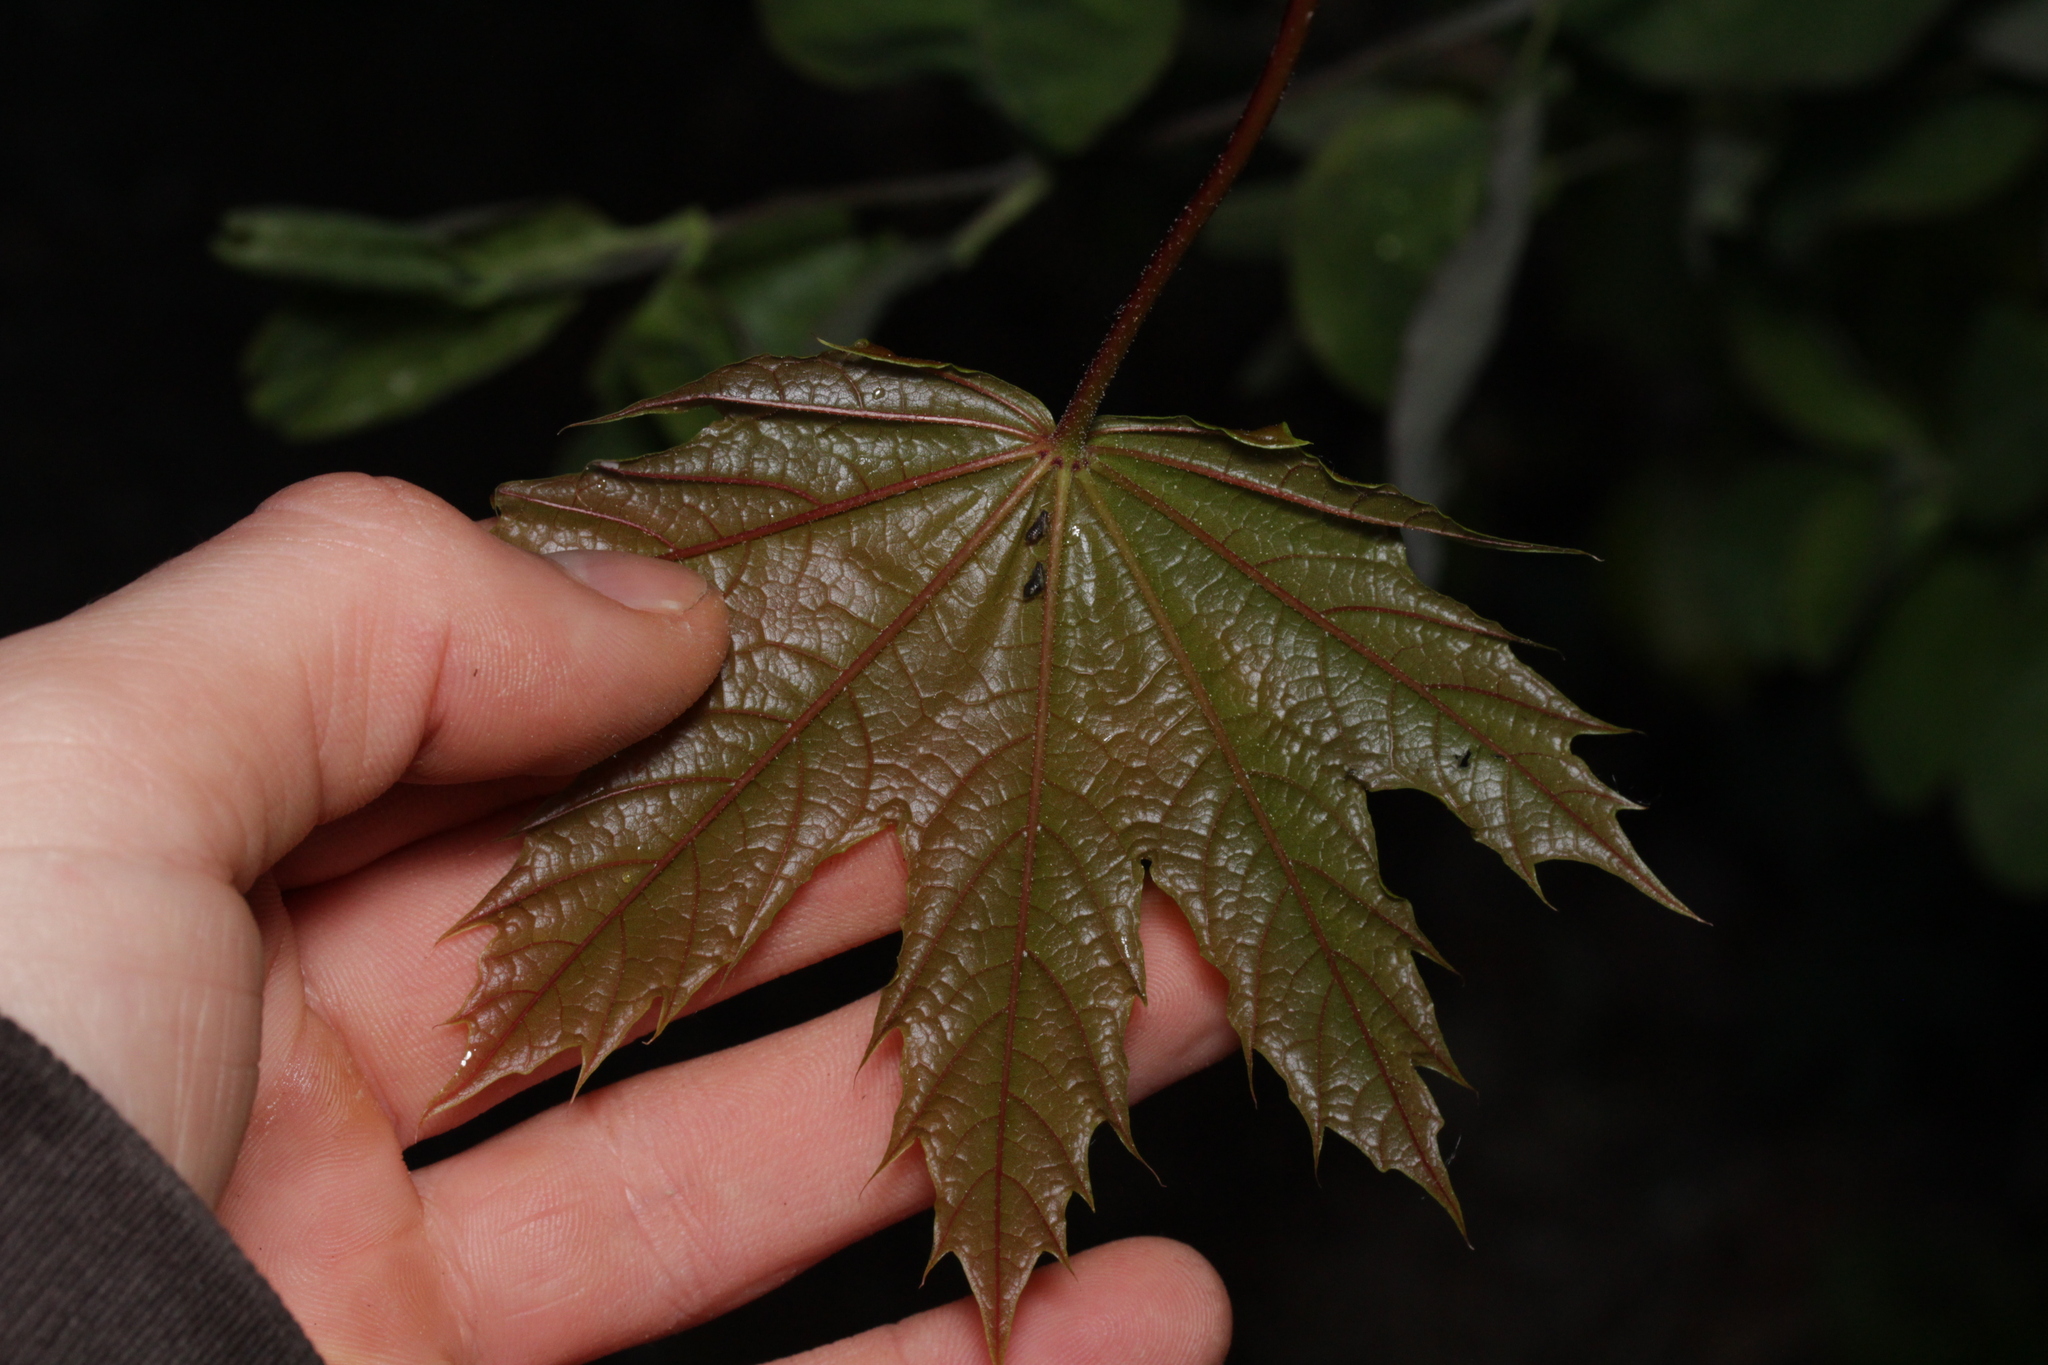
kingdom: Plantae
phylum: Tracheophyta
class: Magnoliopsida
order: Sapindales
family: Sapindaceae
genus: Acer
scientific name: Acer platanoides
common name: Norway maple
